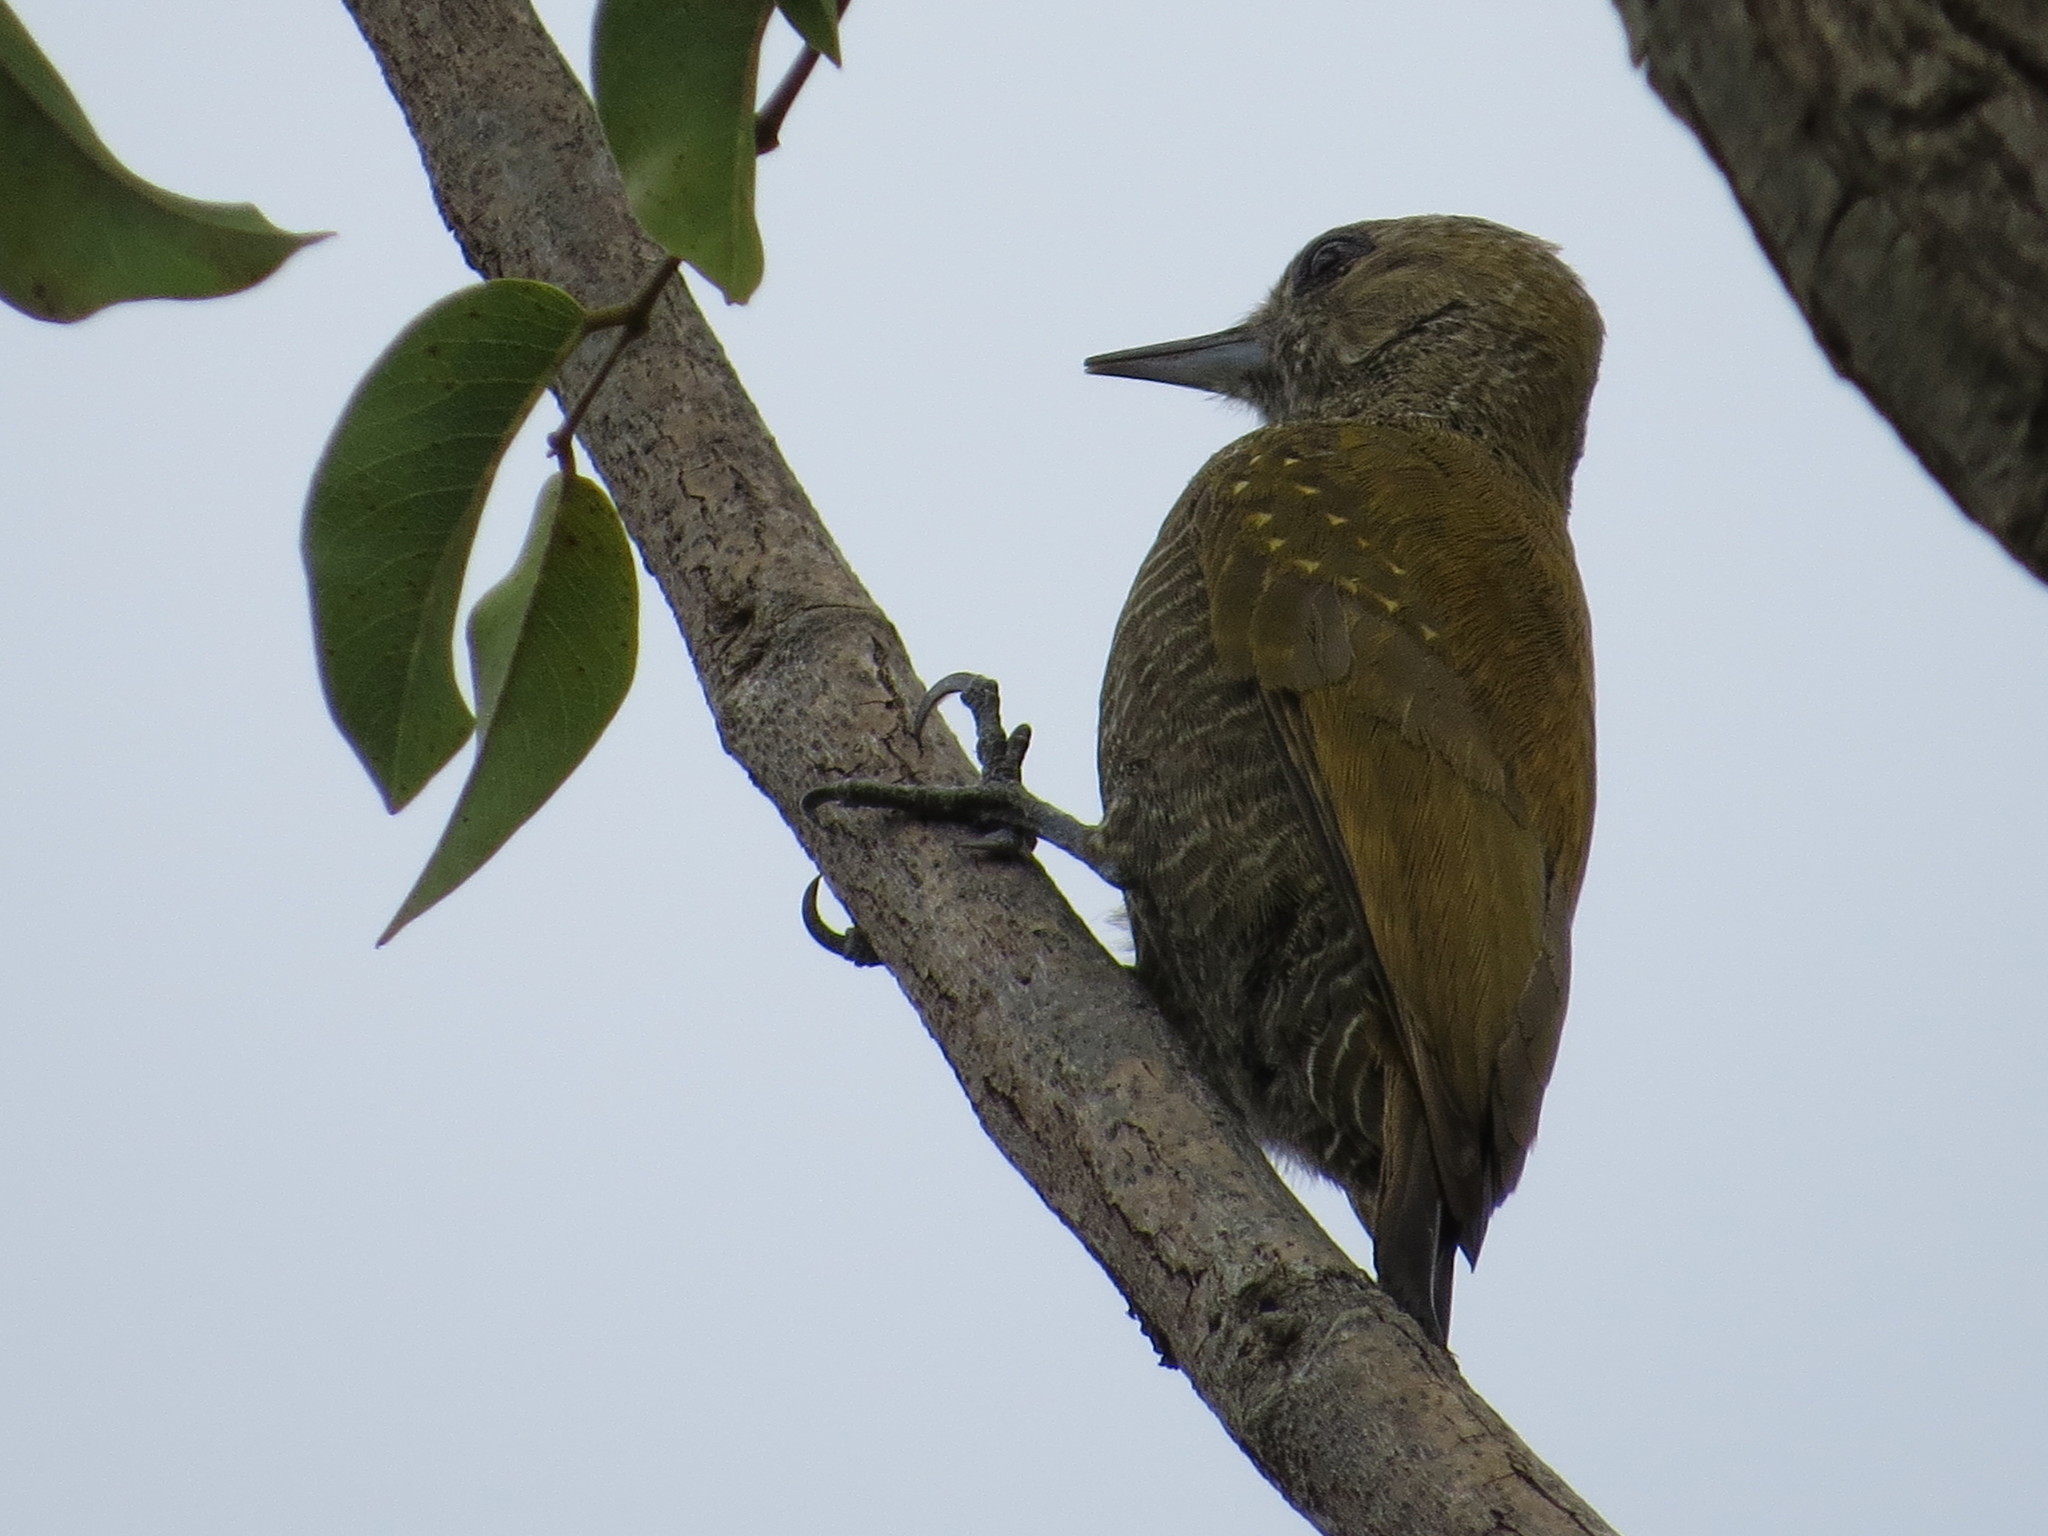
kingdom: Animalia
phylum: Chordata
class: Aves
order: Piciformes
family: Picidae
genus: Veniliornis
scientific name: Veniliornis passerinus
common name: Little woodpecker
